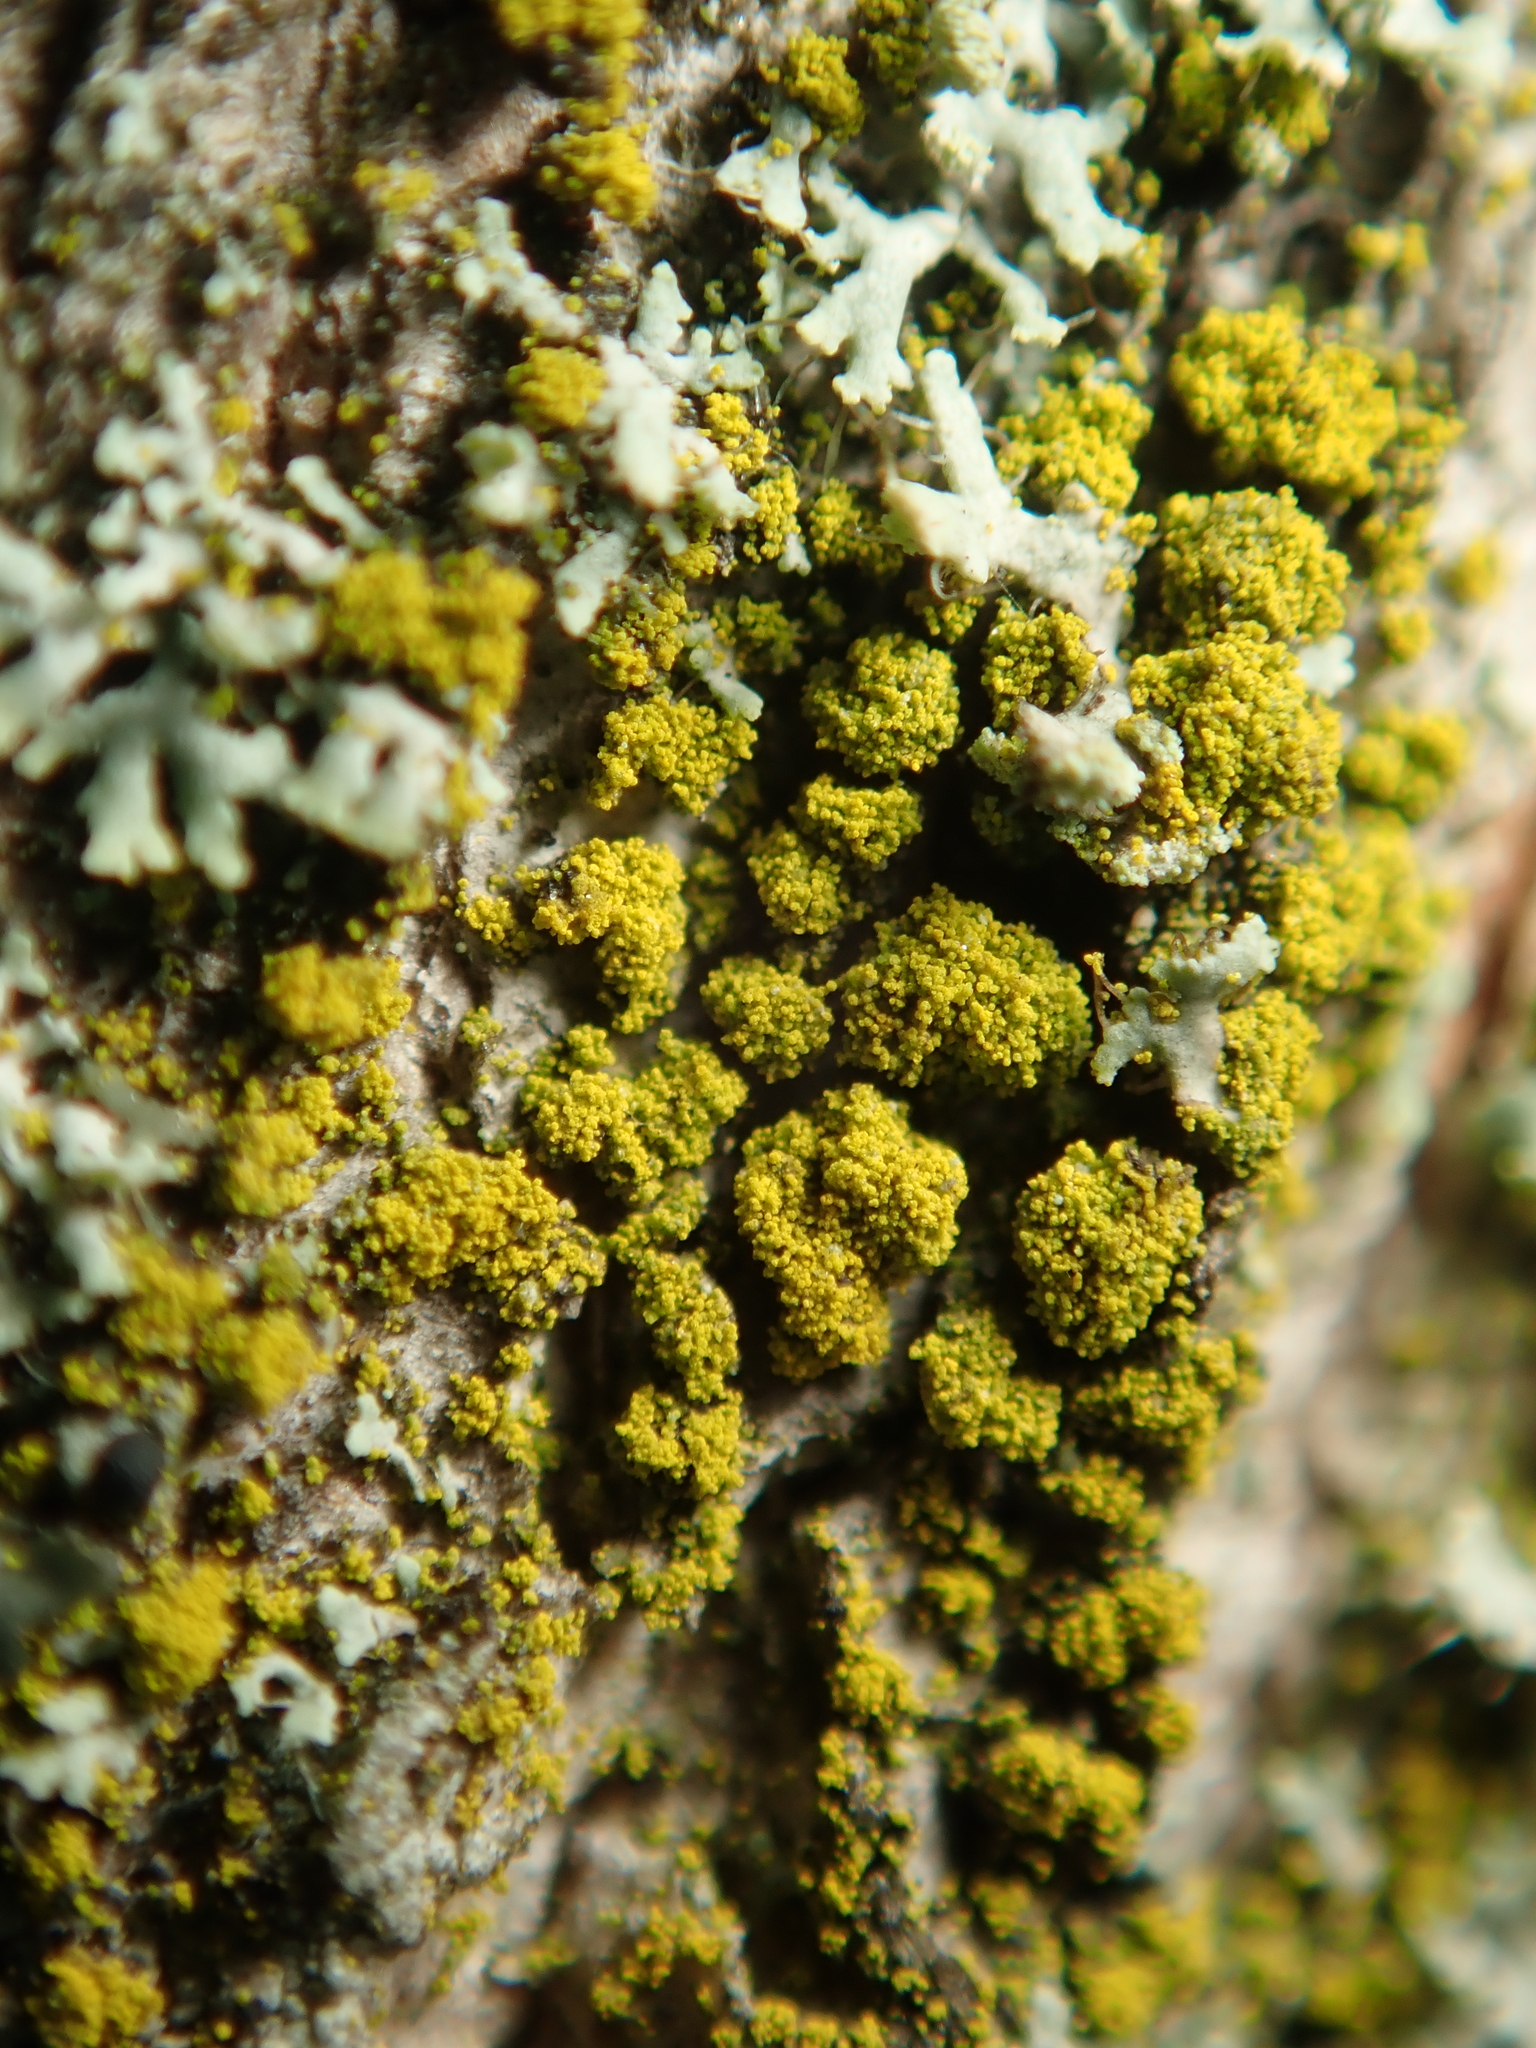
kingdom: Fungi
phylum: Ascomycota
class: Candelariomycetes
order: Candelariales
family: Candelariaceae
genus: Candelariella
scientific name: Candelariella xanthostigma
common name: Granular goldspeck lichen
